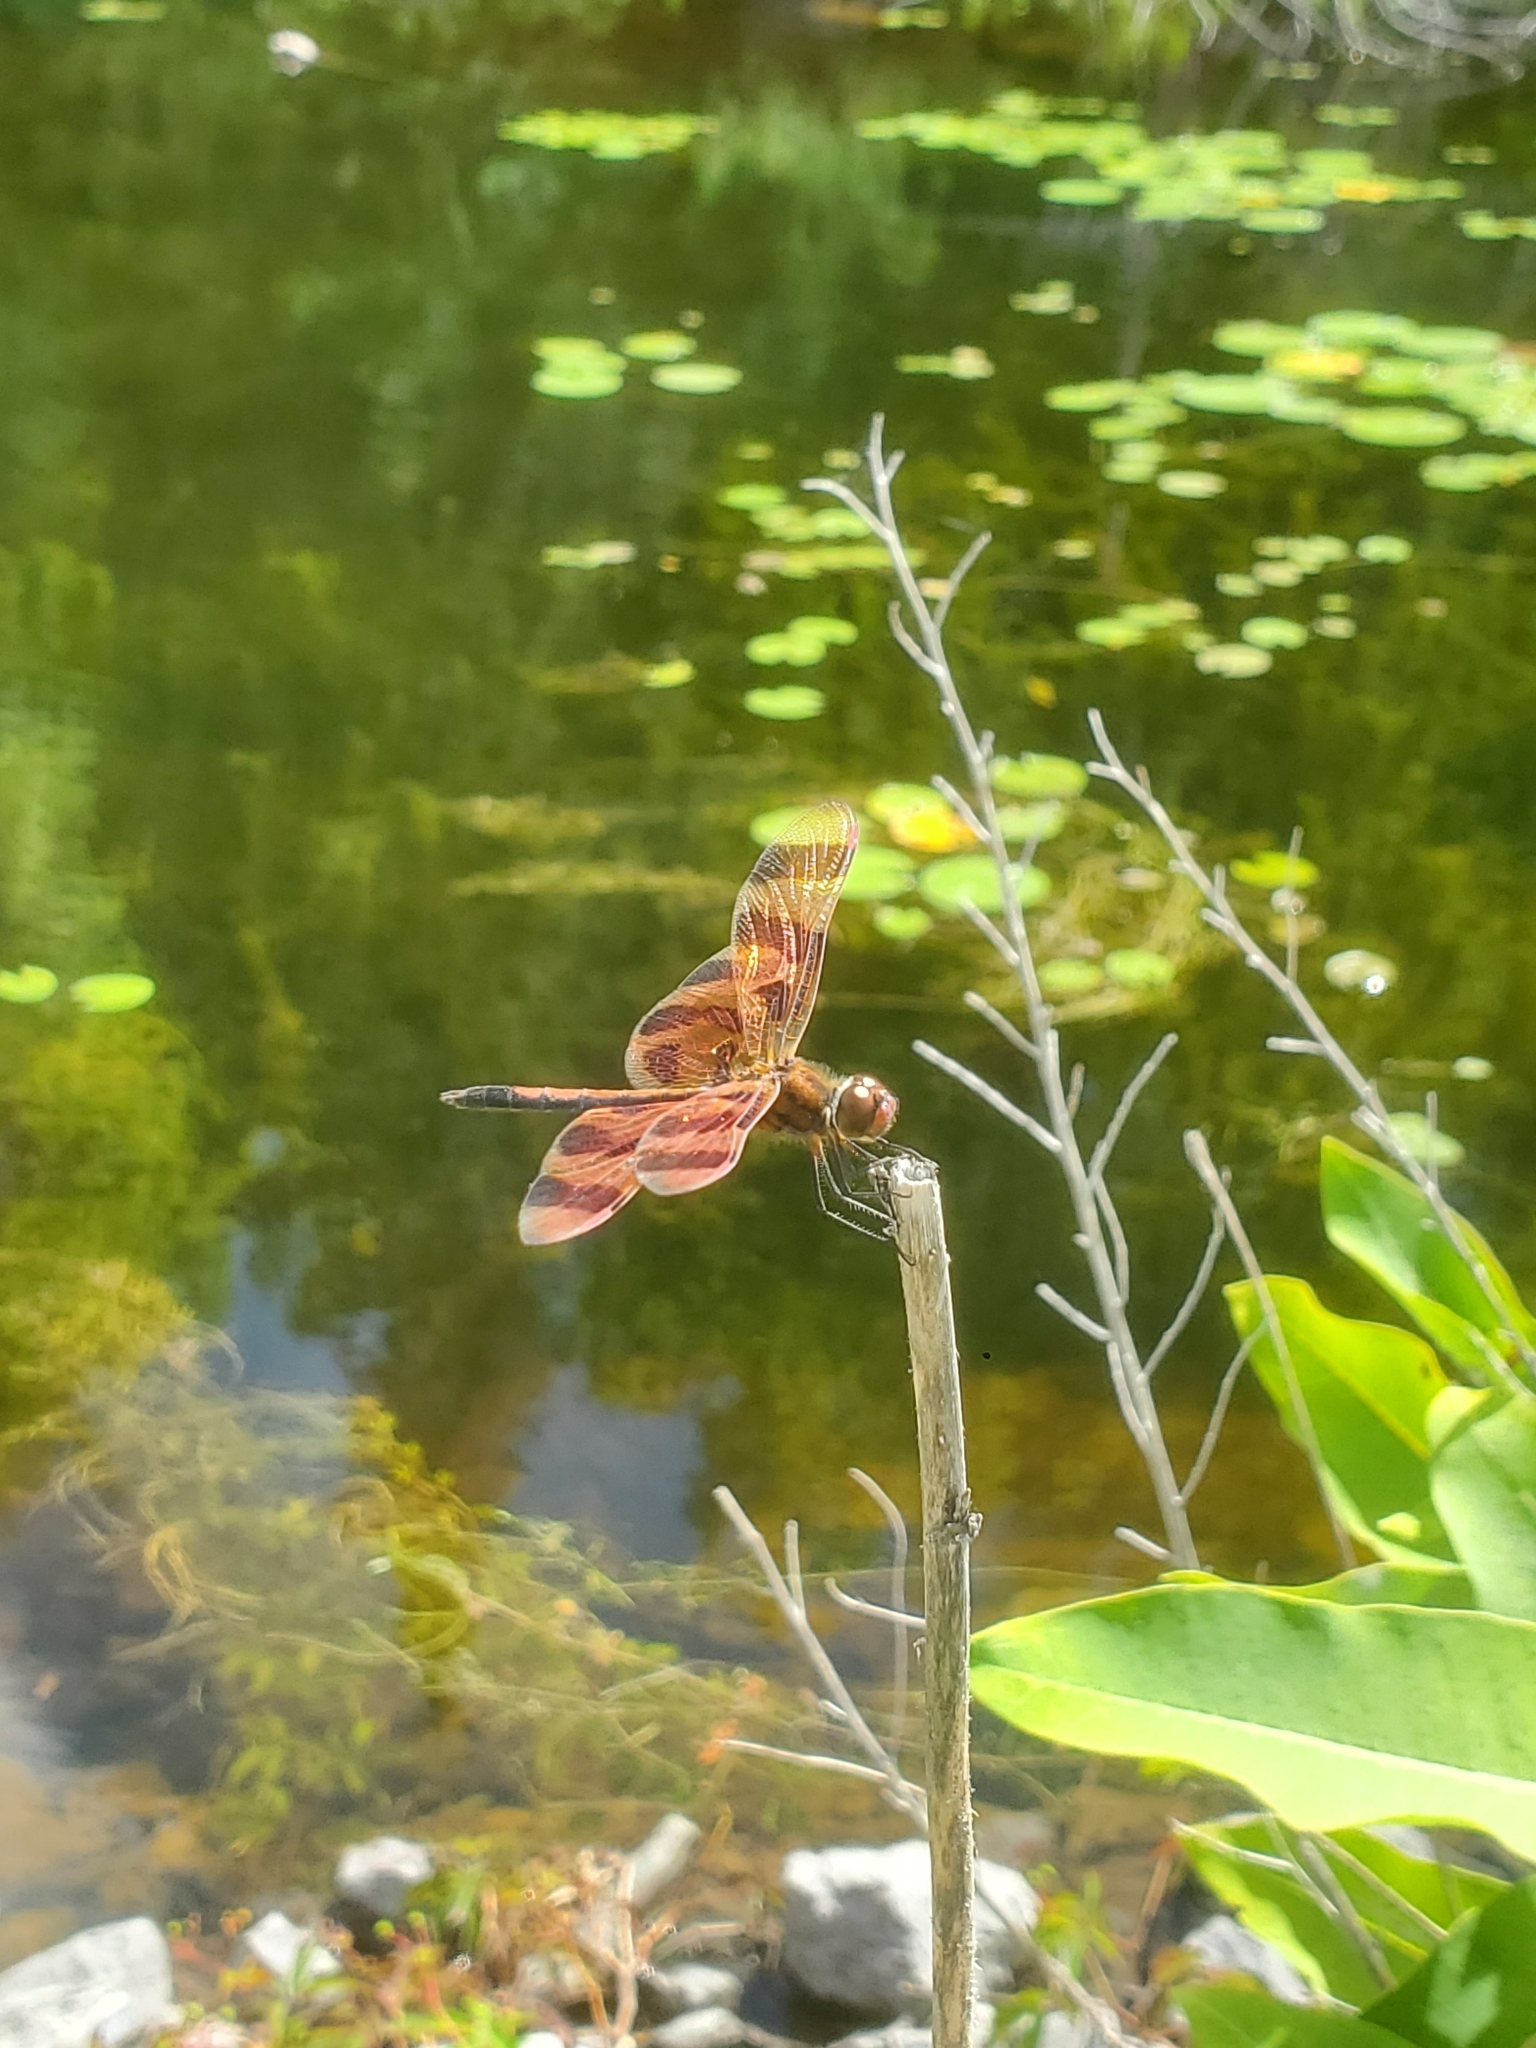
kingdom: Animalia
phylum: Arthropoda
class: Insecta
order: Odonata
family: Libellulidae
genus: Celithemis
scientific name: Celithemis eponina
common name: Halloween pennant
